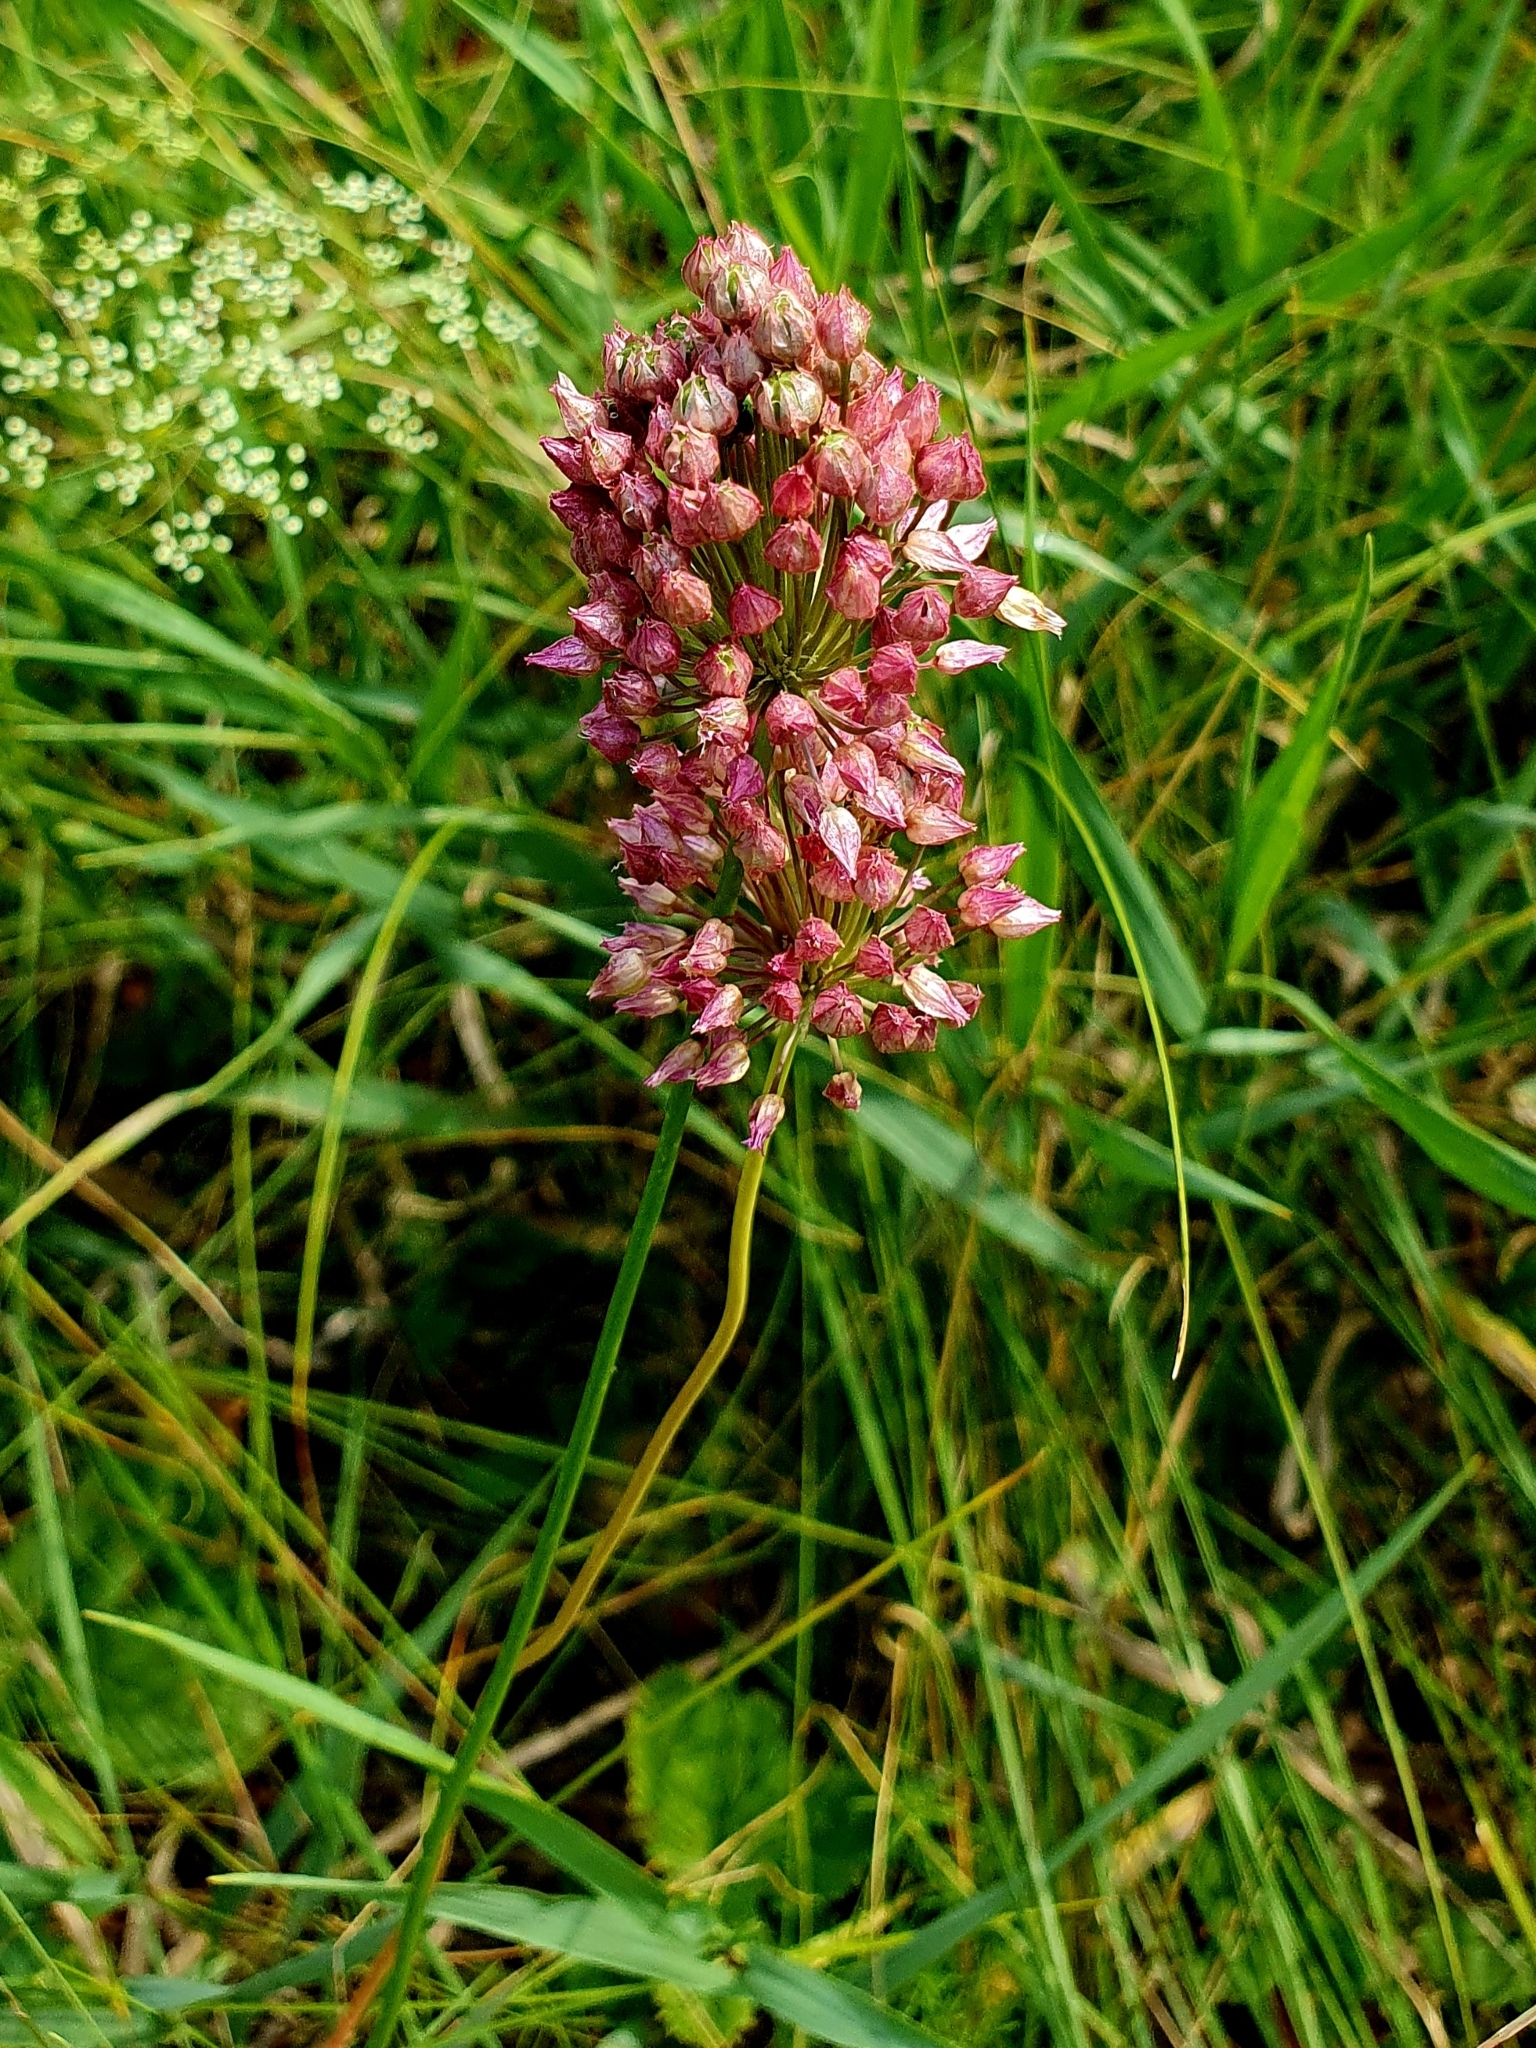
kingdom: Plantae
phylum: Tracheophyta
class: Liliopsida
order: Asparagales
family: Amaryllidaceae
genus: Allium
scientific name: Allium rotundum
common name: Sand leek
